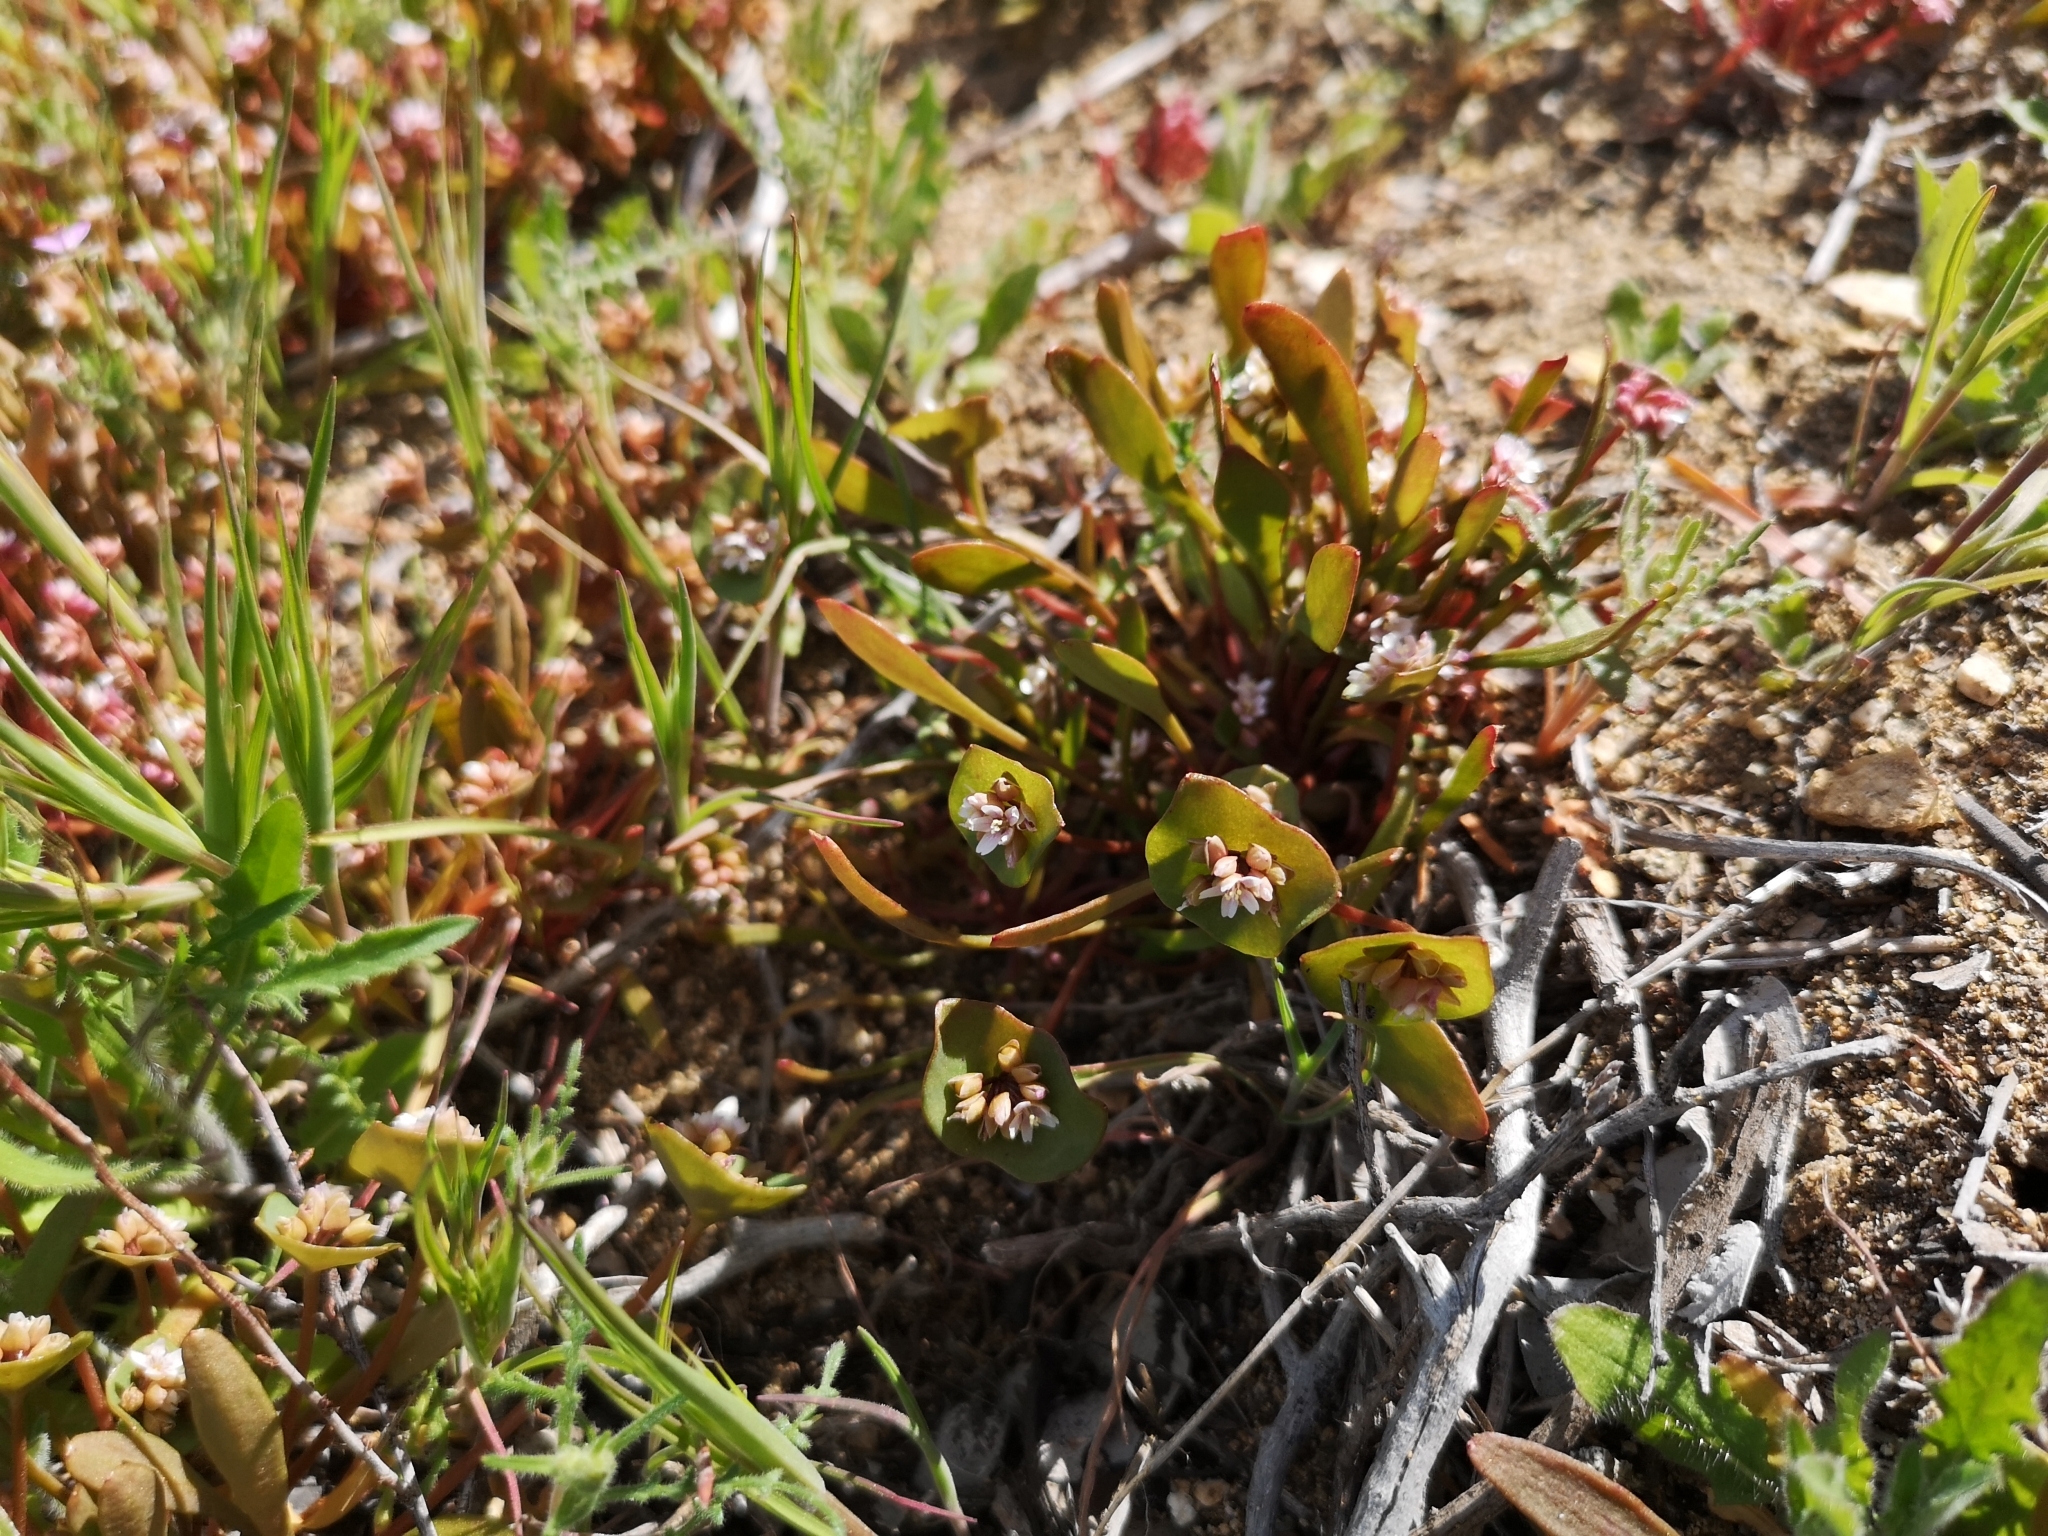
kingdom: Plantae
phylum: Tracheophyta
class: Magnoliopsida
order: Caryophyllales
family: Montiaceae
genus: Claytonia
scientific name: Claytonia parviflora
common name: Indian-lettuce
